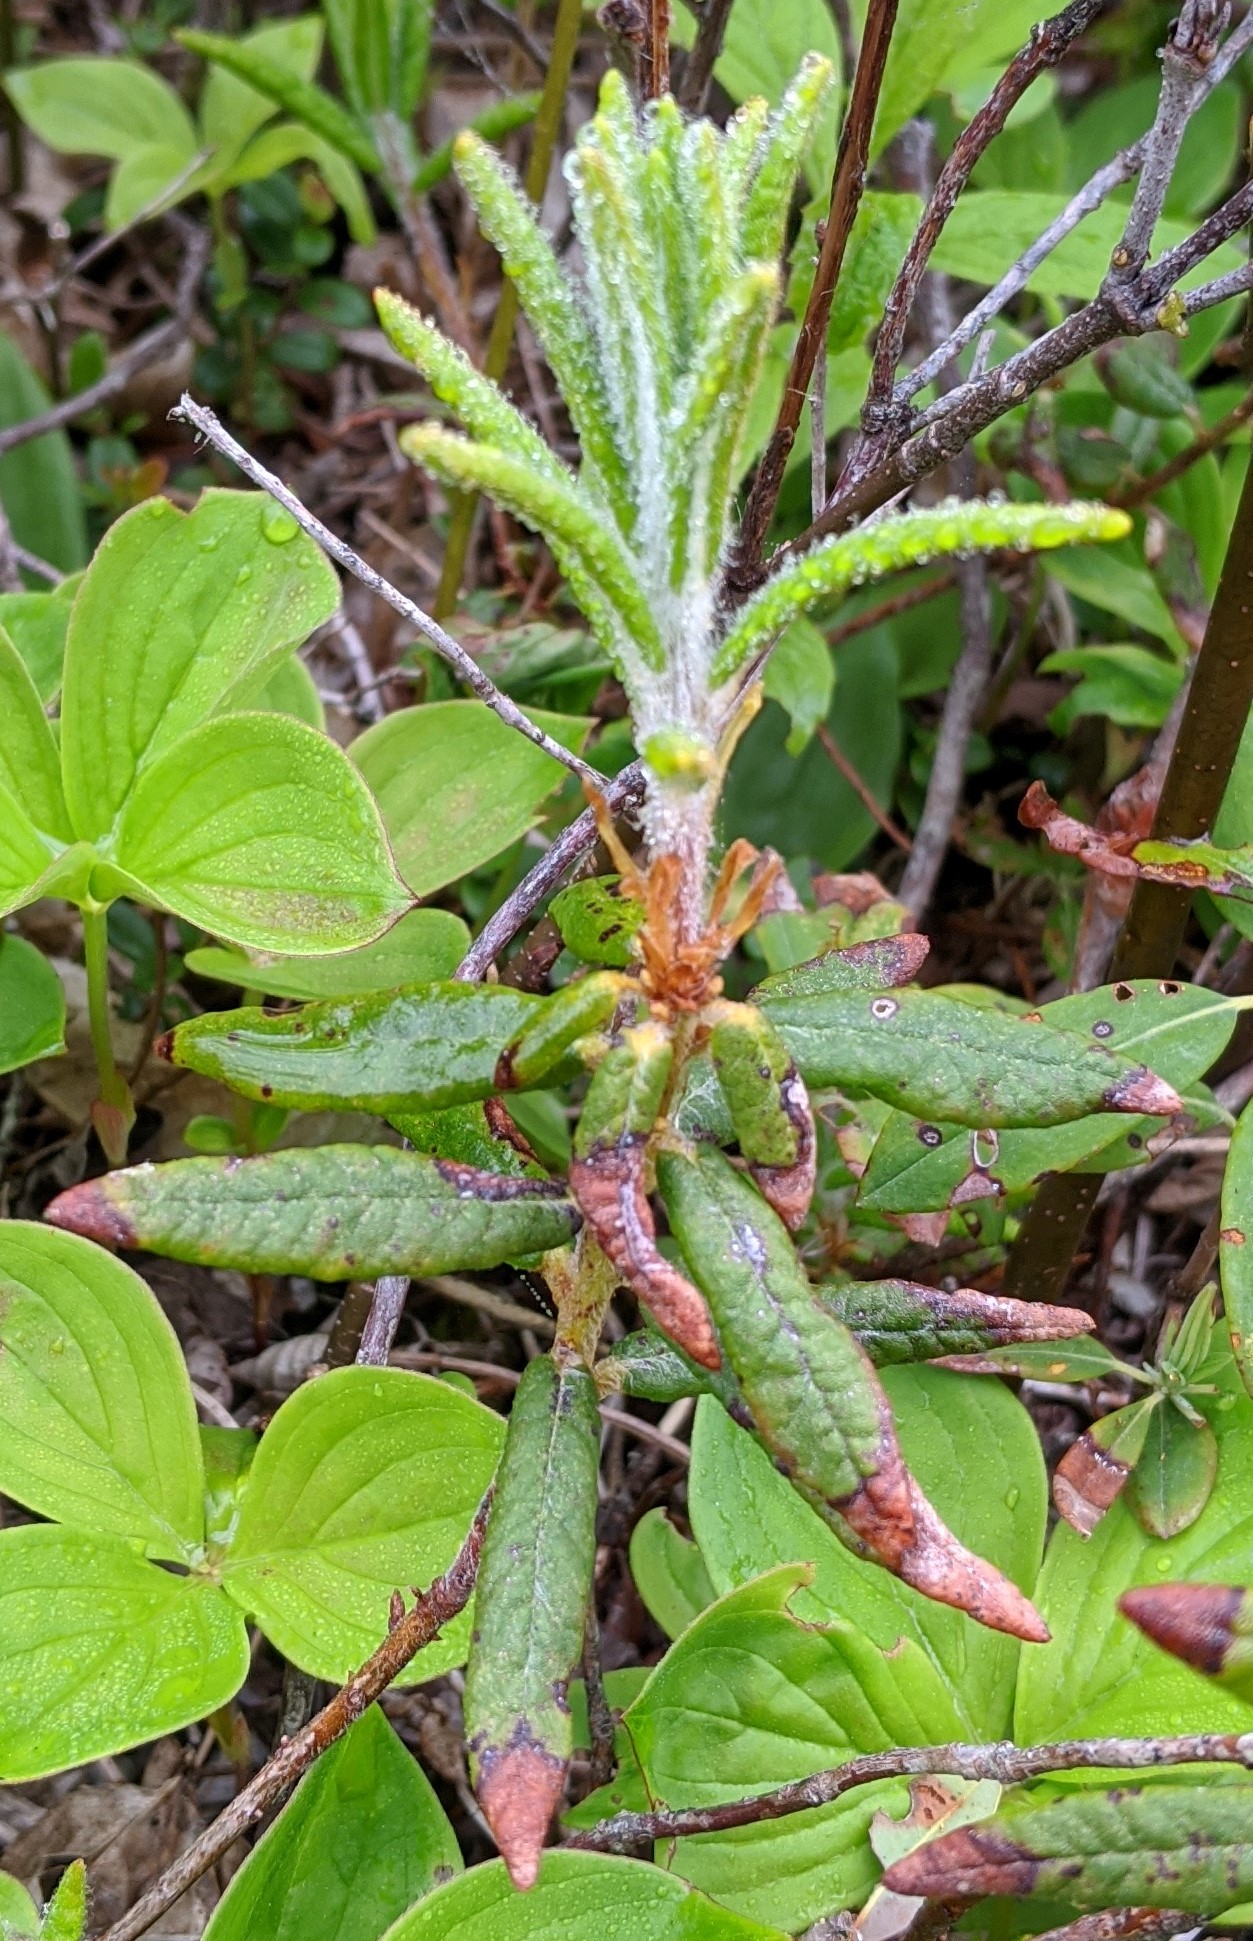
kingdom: Plantae
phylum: Tracheophyta
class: Magnoliopsida
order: Ericales
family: Ericaceae
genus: Rhododendron
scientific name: Rhododendron groenlandicum
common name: Bog labrador tea
